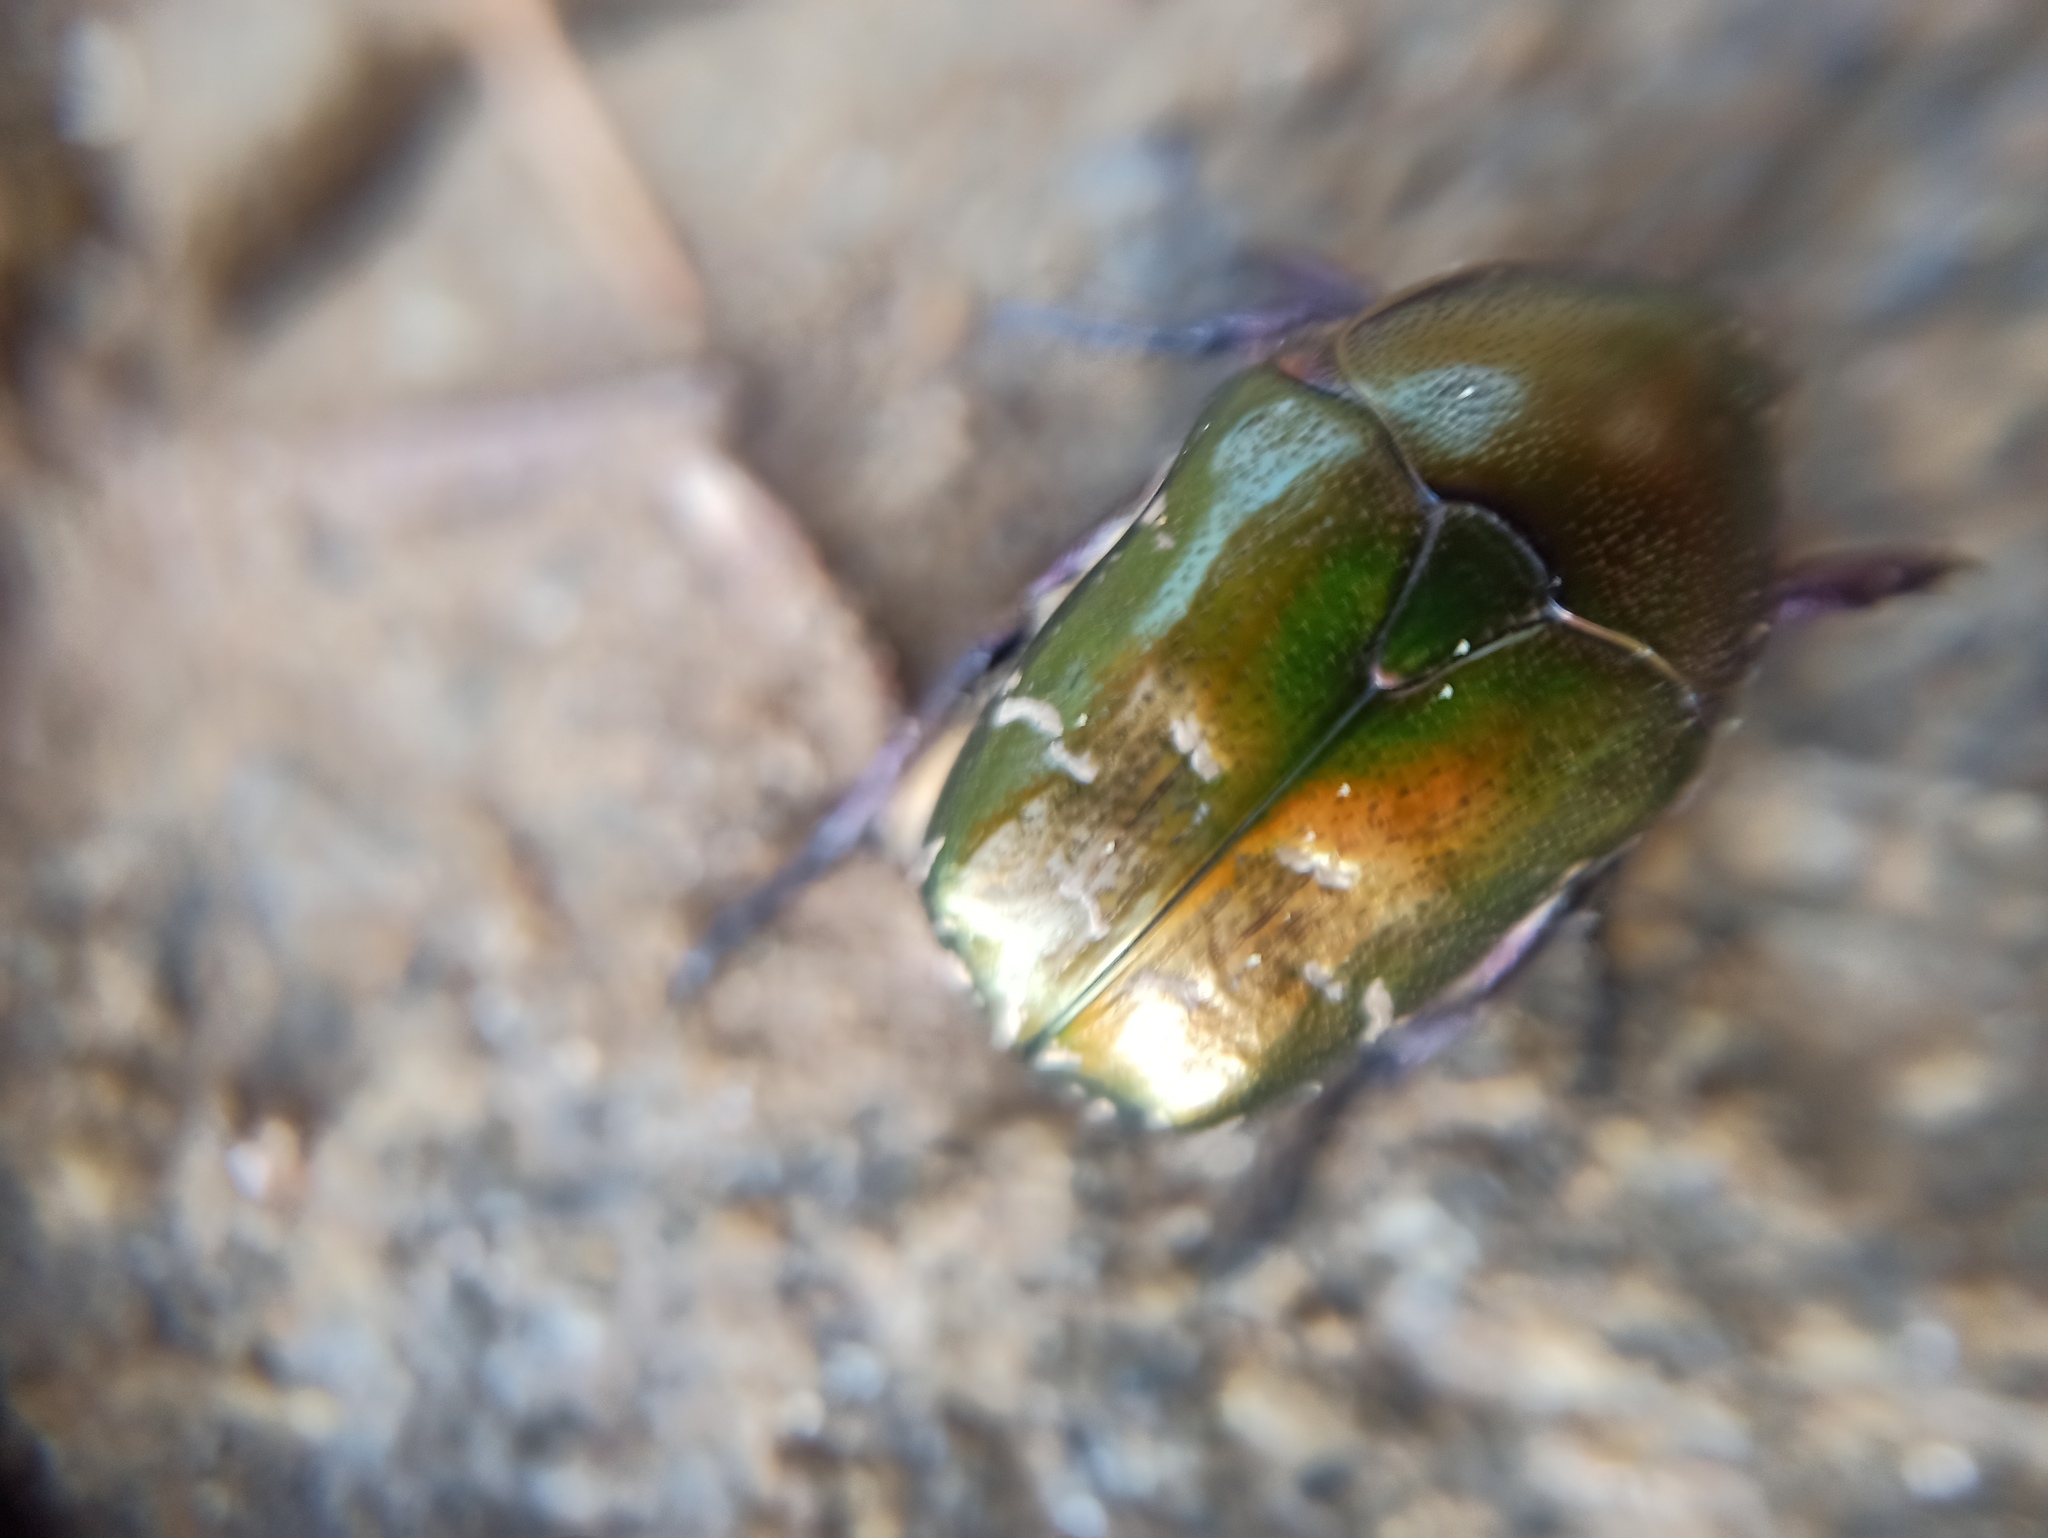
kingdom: Animalia
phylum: Arthropoda
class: Insecta
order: Coleoptera
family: Scarabaeidae
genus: Protaetia
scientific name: Protaetia cuprea
